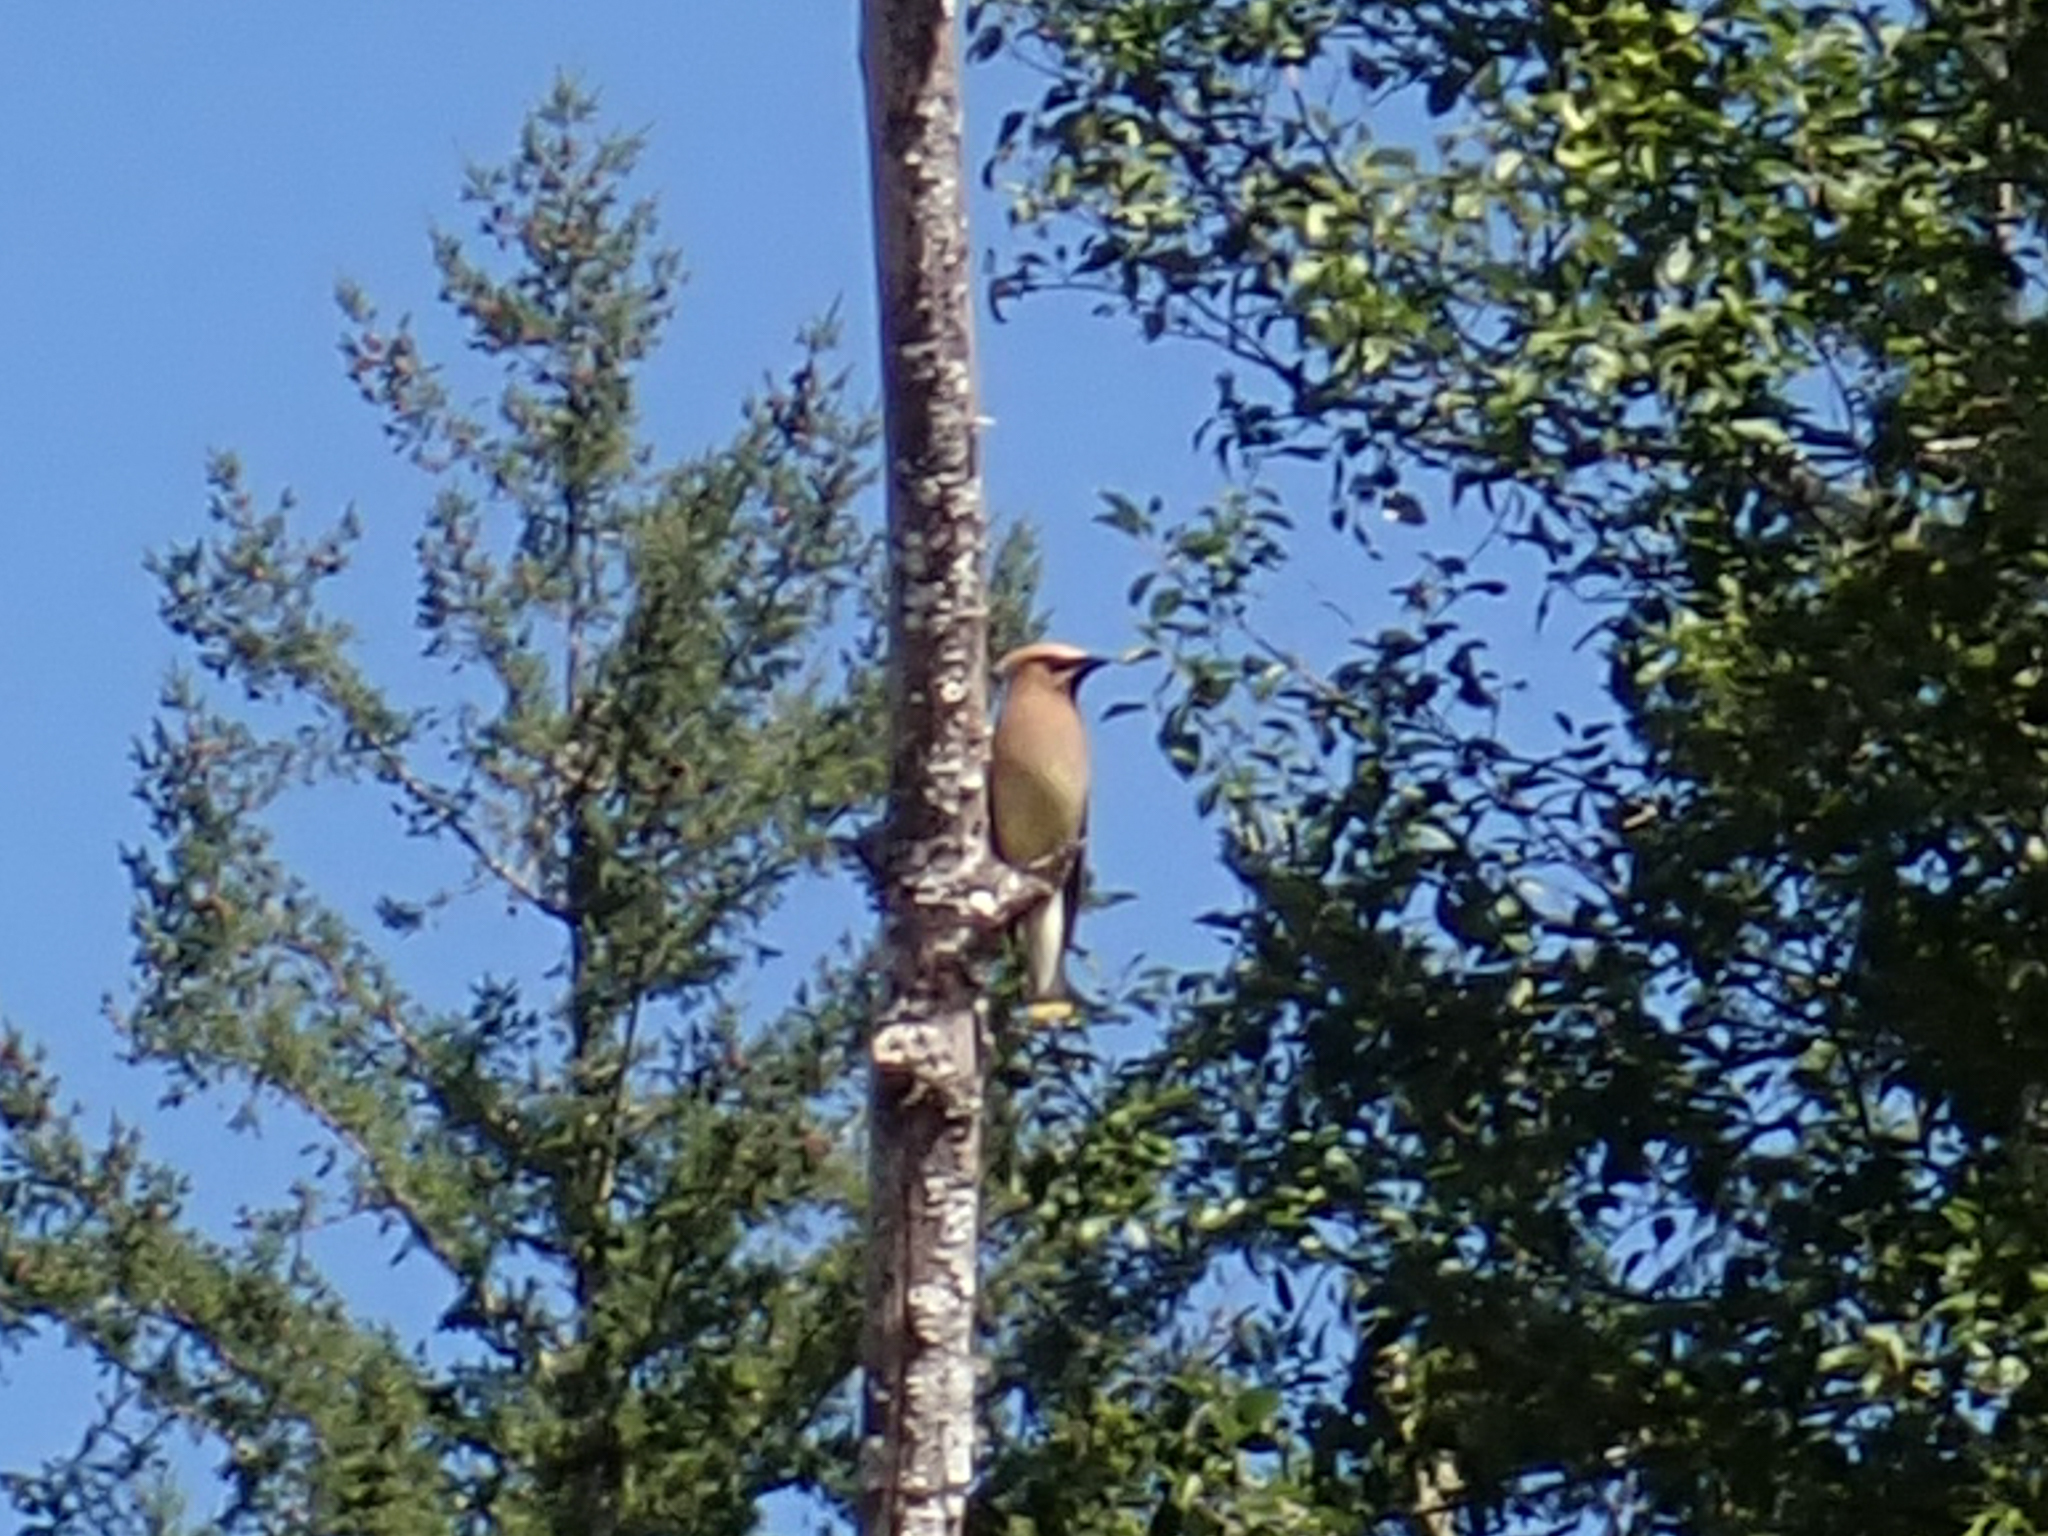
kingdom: Animalia
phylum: Chordata
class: Aves
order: Passeriformes
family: Bombycillidae
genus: Bombycilla
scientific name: Bombycilla cedrorum
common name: Cedar waxwing
